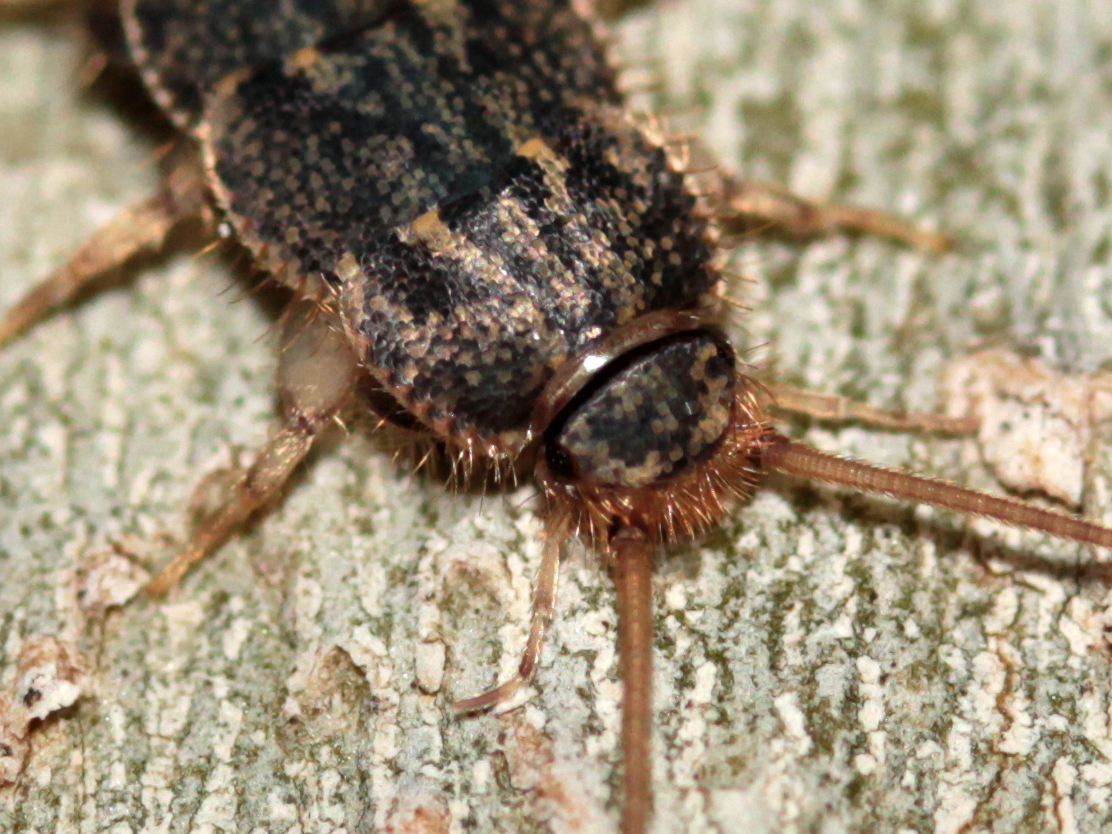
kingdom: Animalia
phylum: Arthropoda
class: Insecta
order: Zygentoma
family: Lepismatidae
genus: Ctenolepisma
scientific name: Ctenolepisma lineata
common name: Four-lined silverfish
